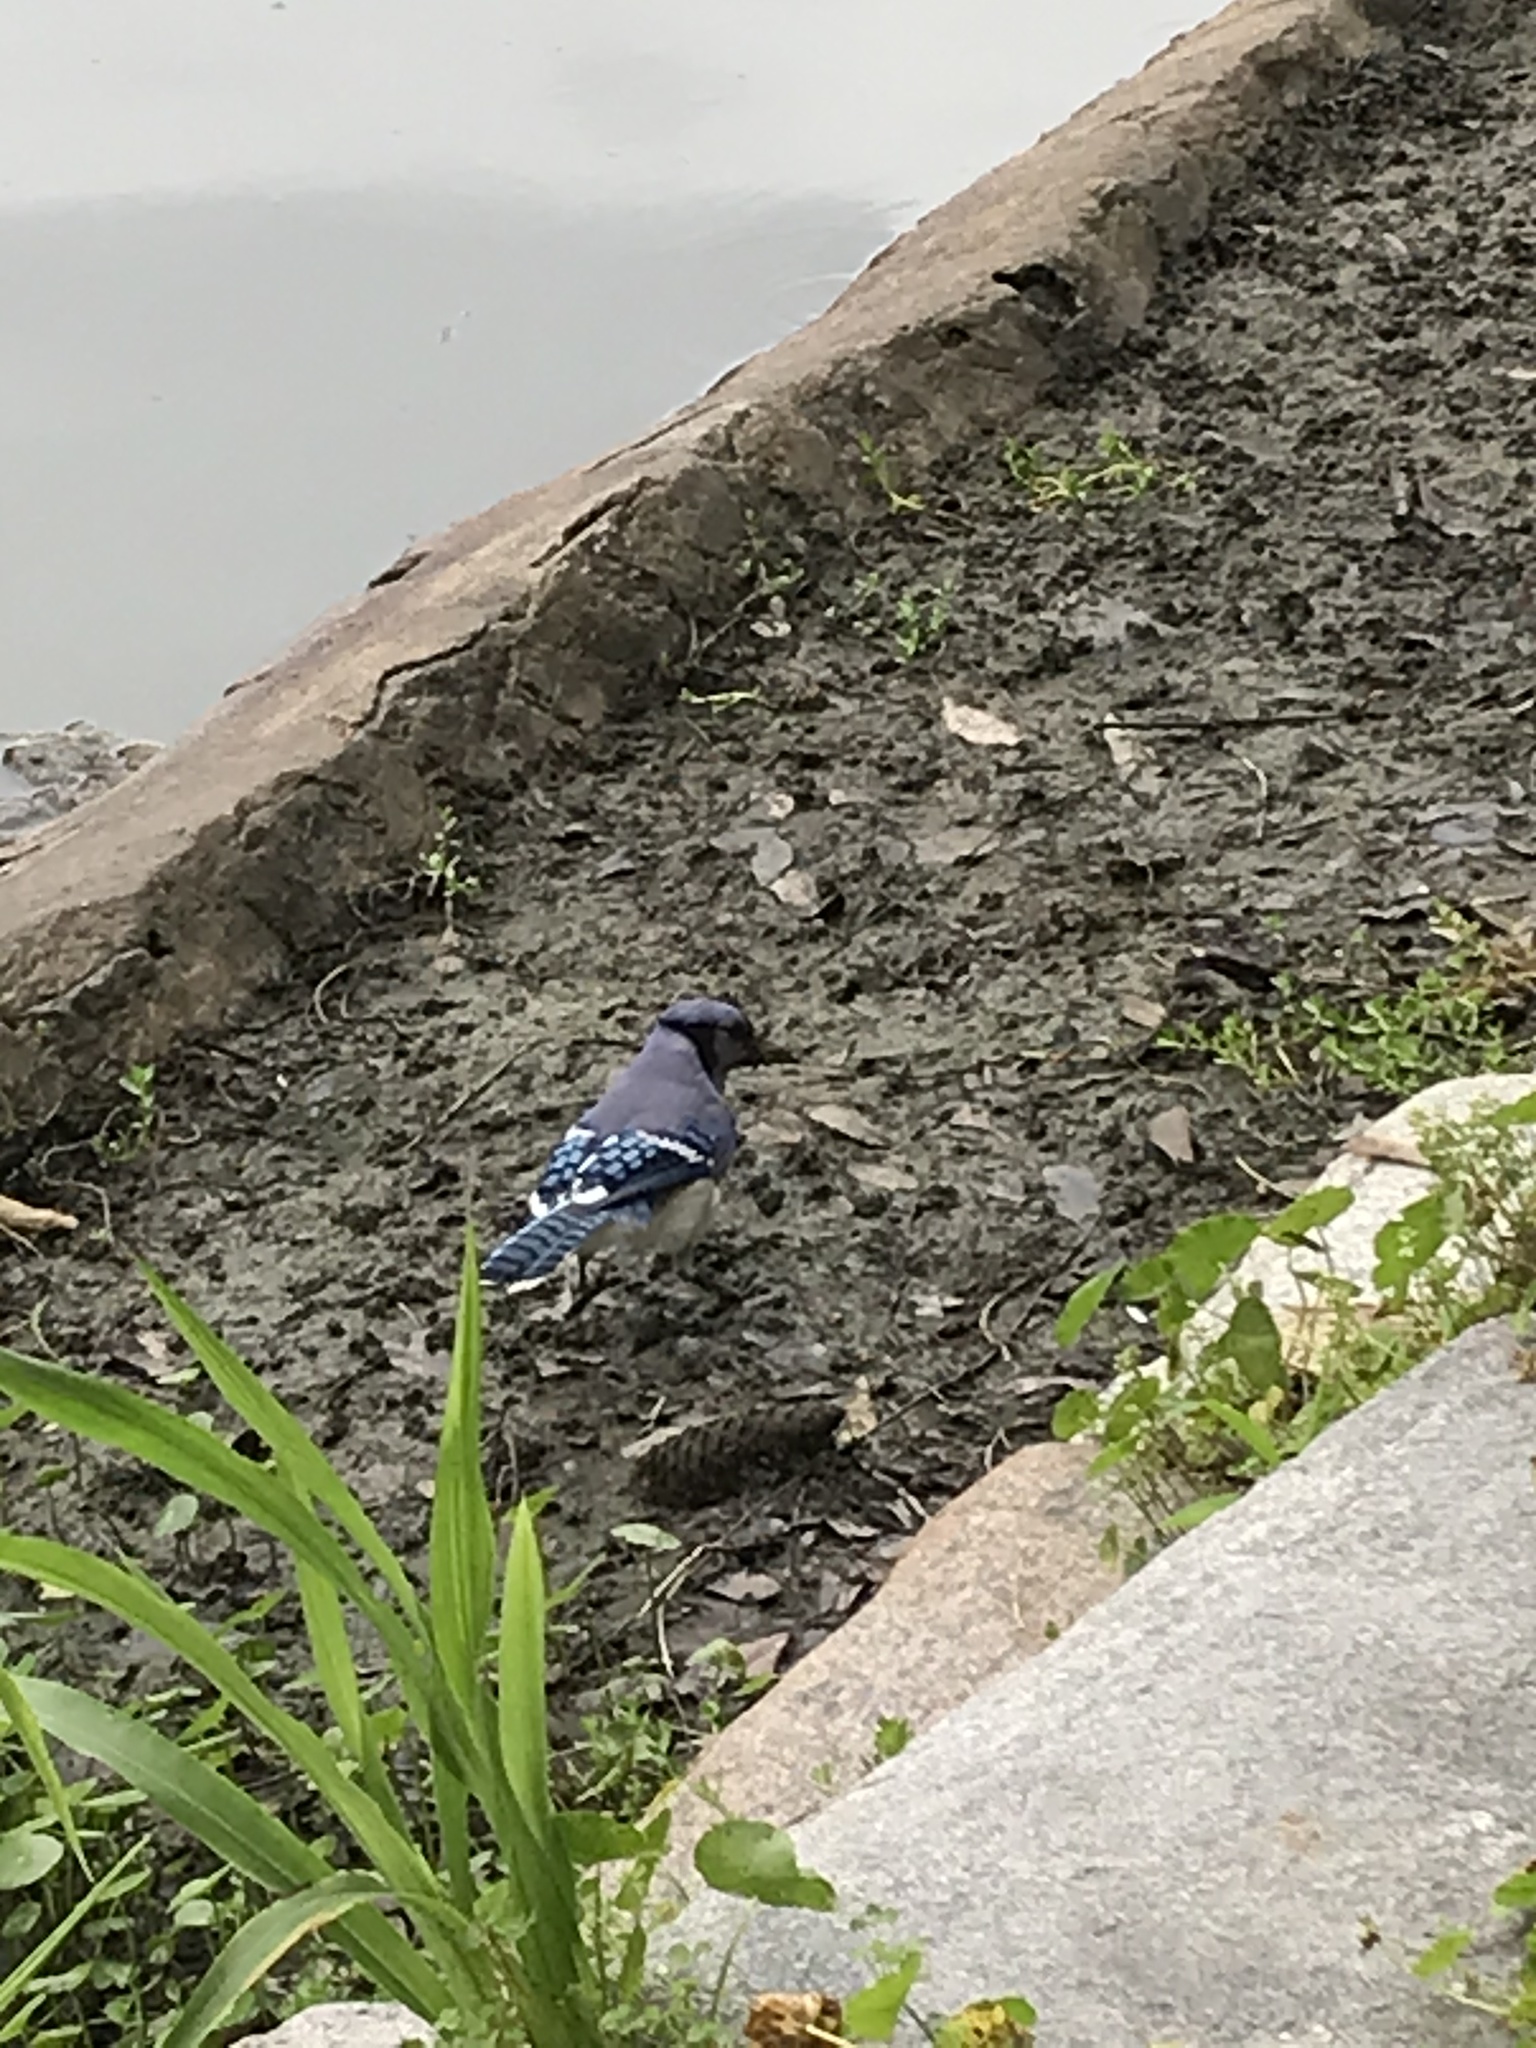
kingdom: Animalia
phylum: Chordata
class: Aves
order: Passeriformes
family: Corvidae
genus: Cyanocitta
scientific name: Cyanocitta cristata
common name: Blue jay
